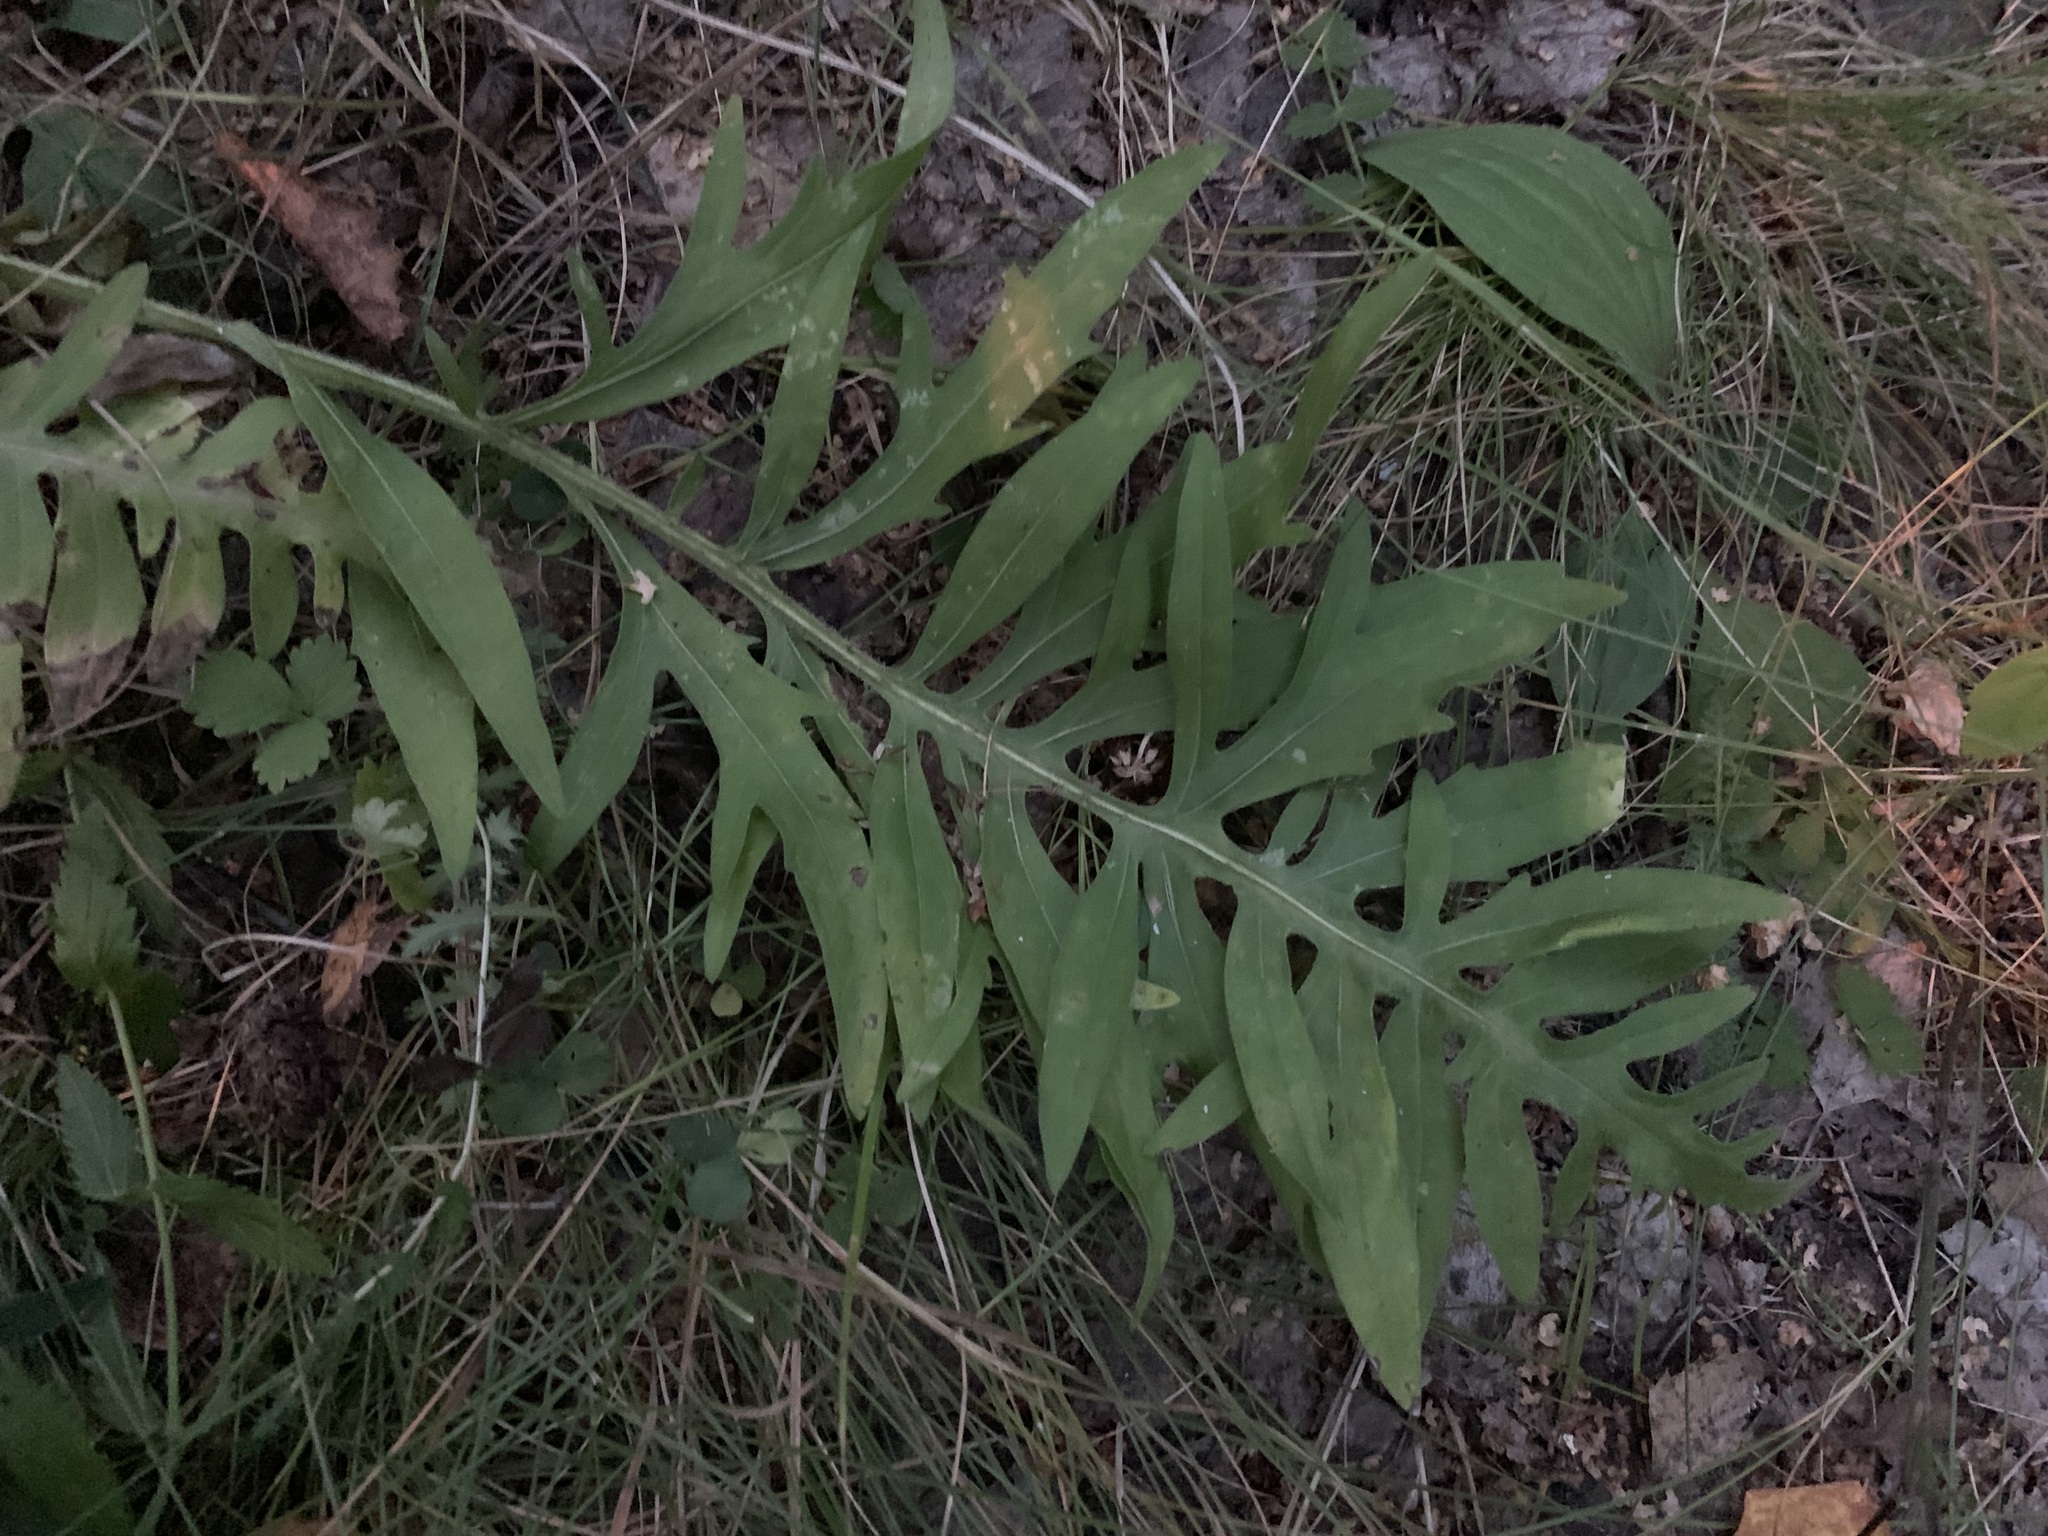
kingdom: Plantae
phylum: Tracheophyta
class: Magnoliopsida
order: Asterales
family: Asteraceae
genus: Centaurea
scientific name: Centaurea scabiosa
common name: Greater knapweed
